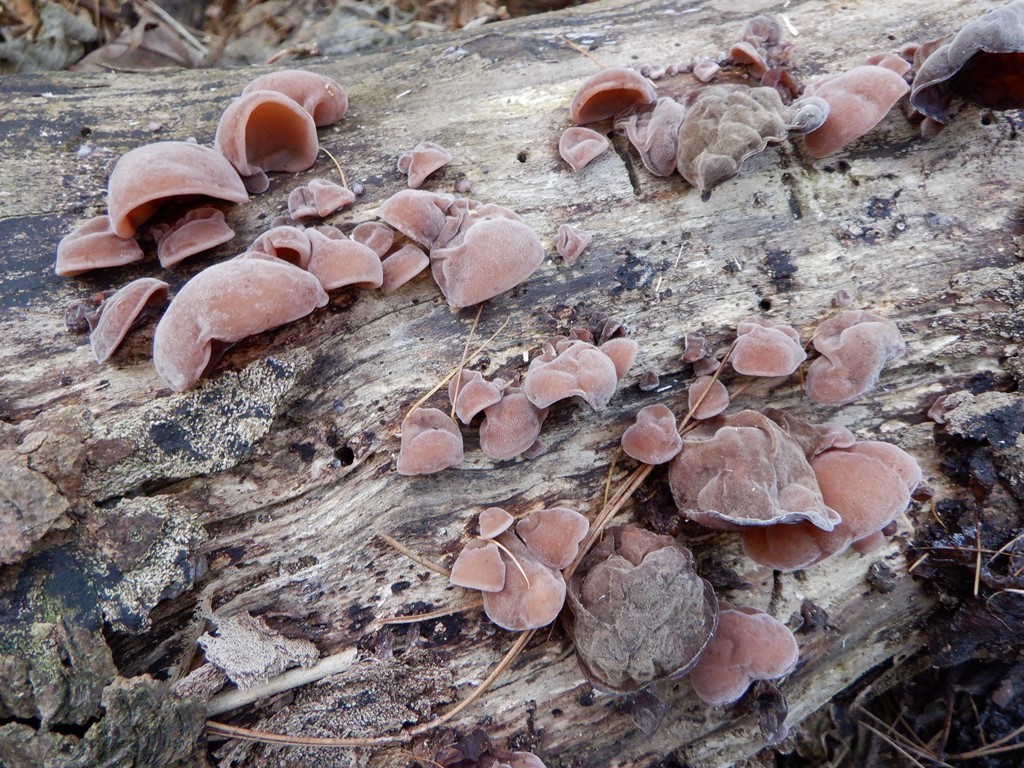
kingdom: Fungi
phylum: Basidiomycota
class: Agaricomycetes
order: Auriculariales
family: Auriculariaceae
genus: Auricularia
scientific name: Auricularia auricula-judae
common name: Jelly ear
